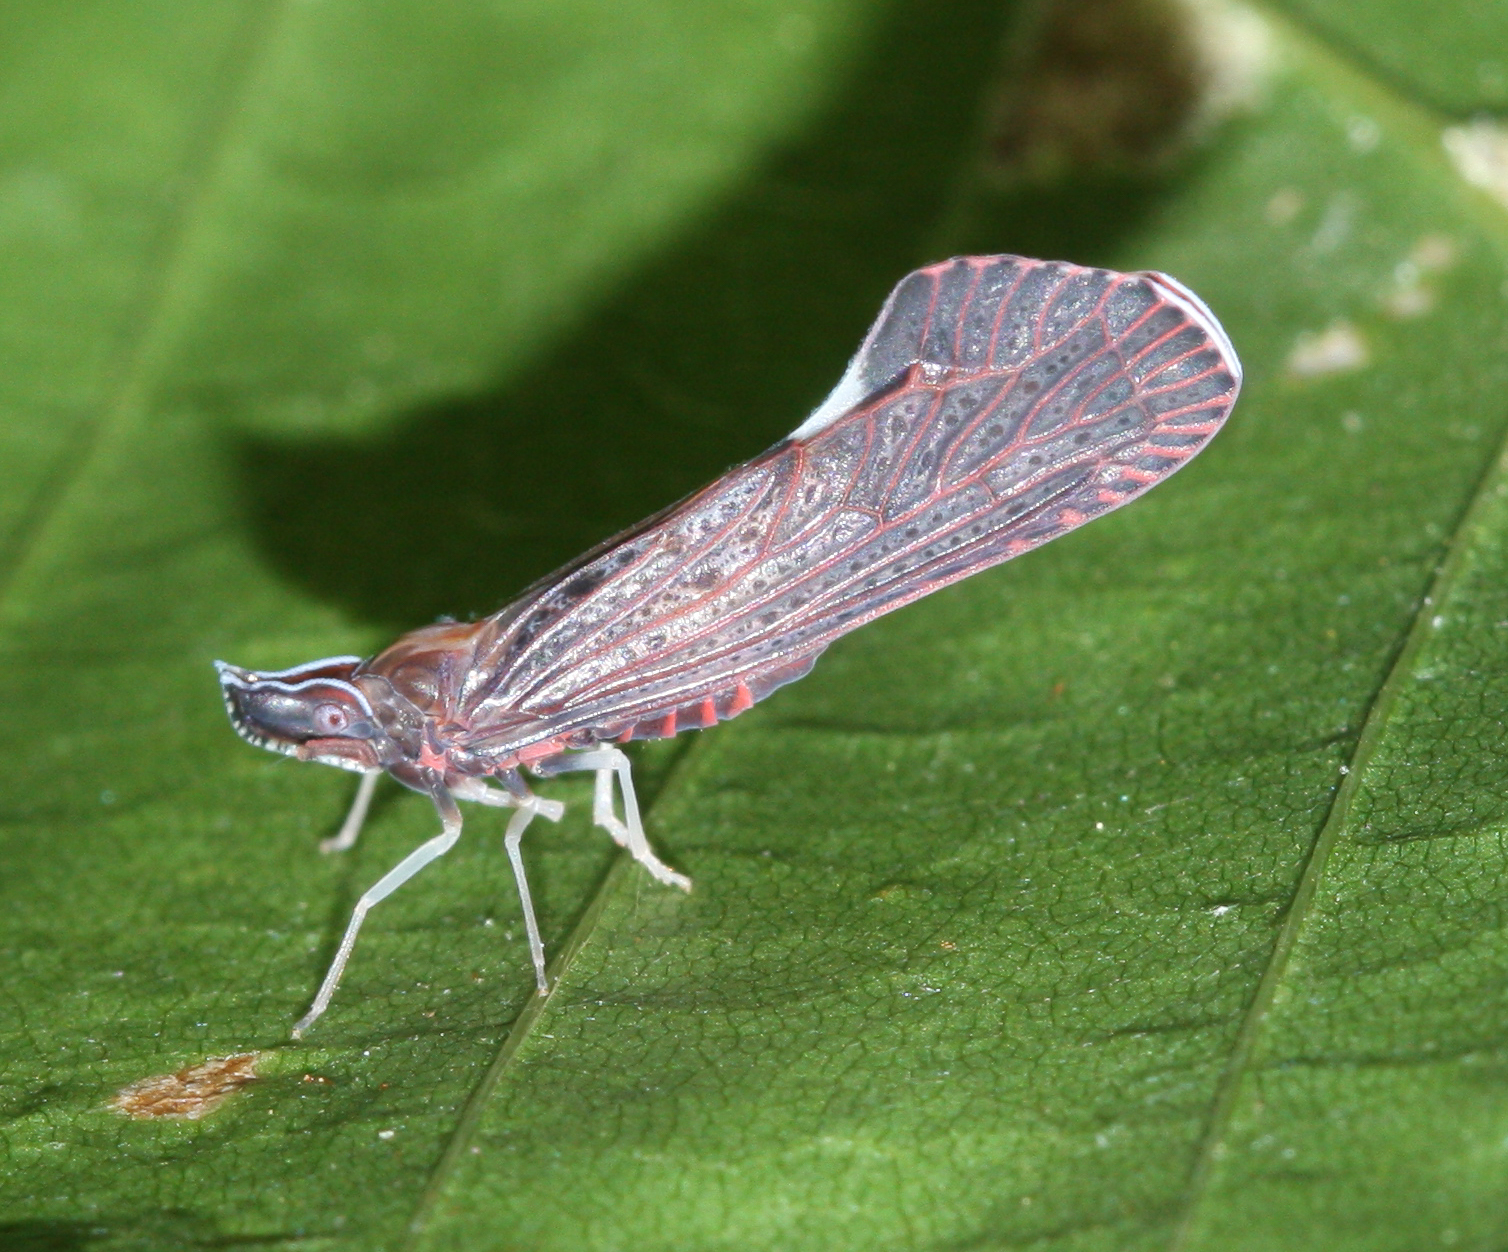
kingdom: Animalia
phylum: Arthropoda
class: Insecta
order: Hemiptera
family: Derbidae
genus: Apache
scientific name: Apache degeeri
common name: Red-fanned planthopper
